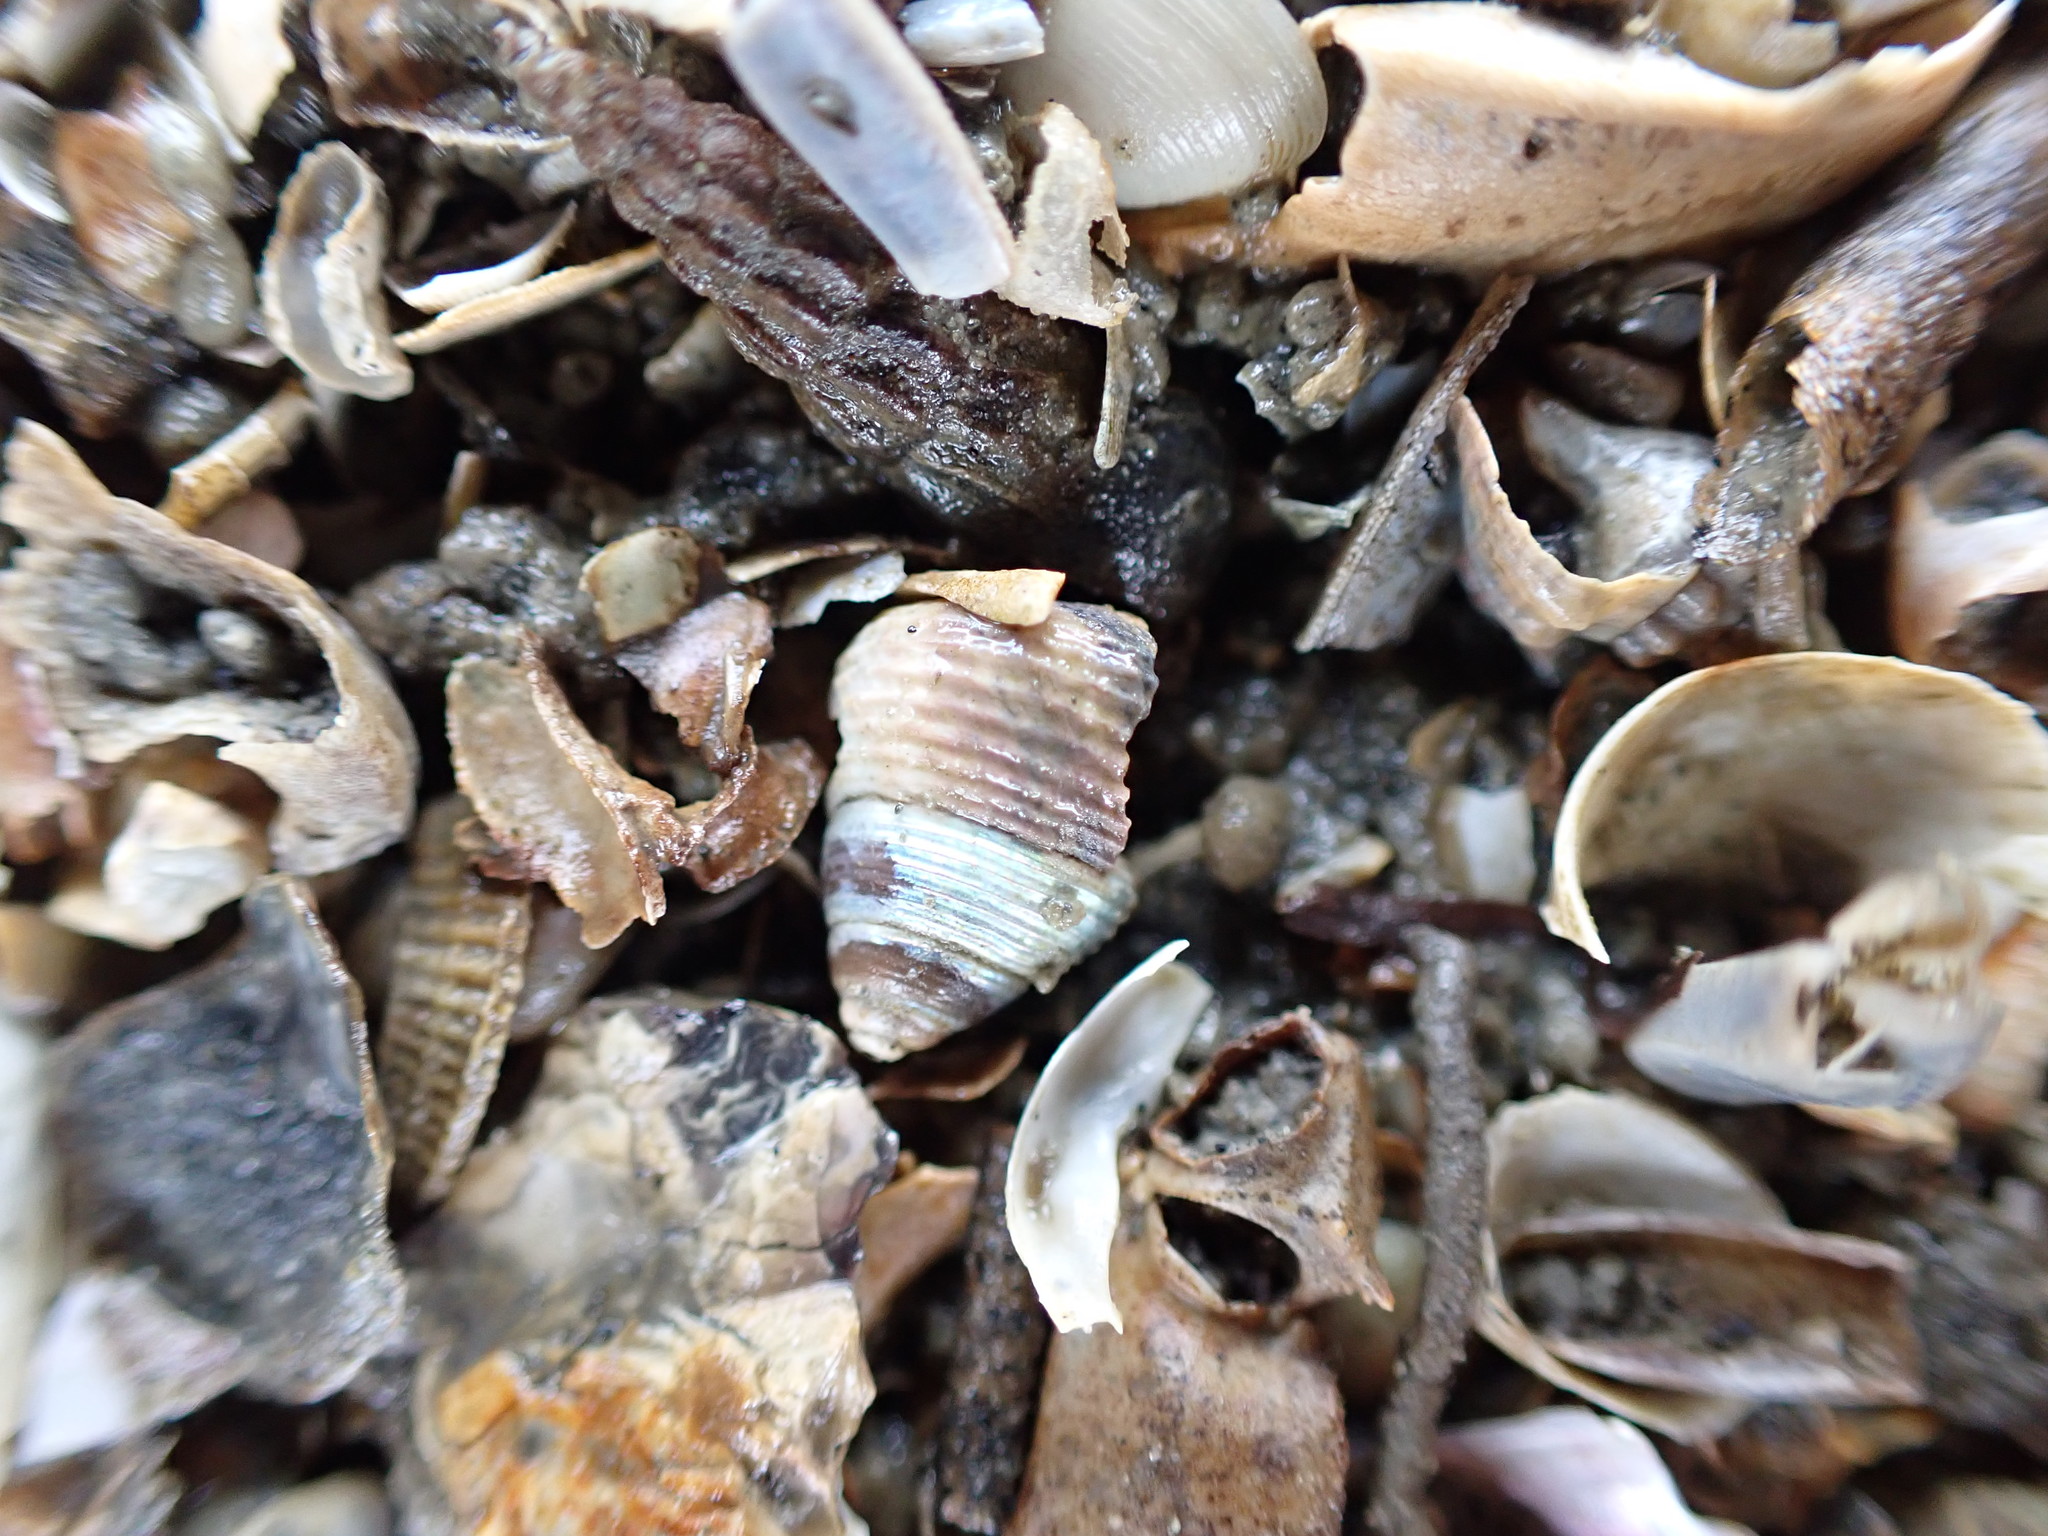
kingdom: Animalia
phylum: Mollusca
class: Gastropoda
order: Trochida
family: Trochidae
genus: Micrelenchus
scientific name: Micrelenchus huttonii
